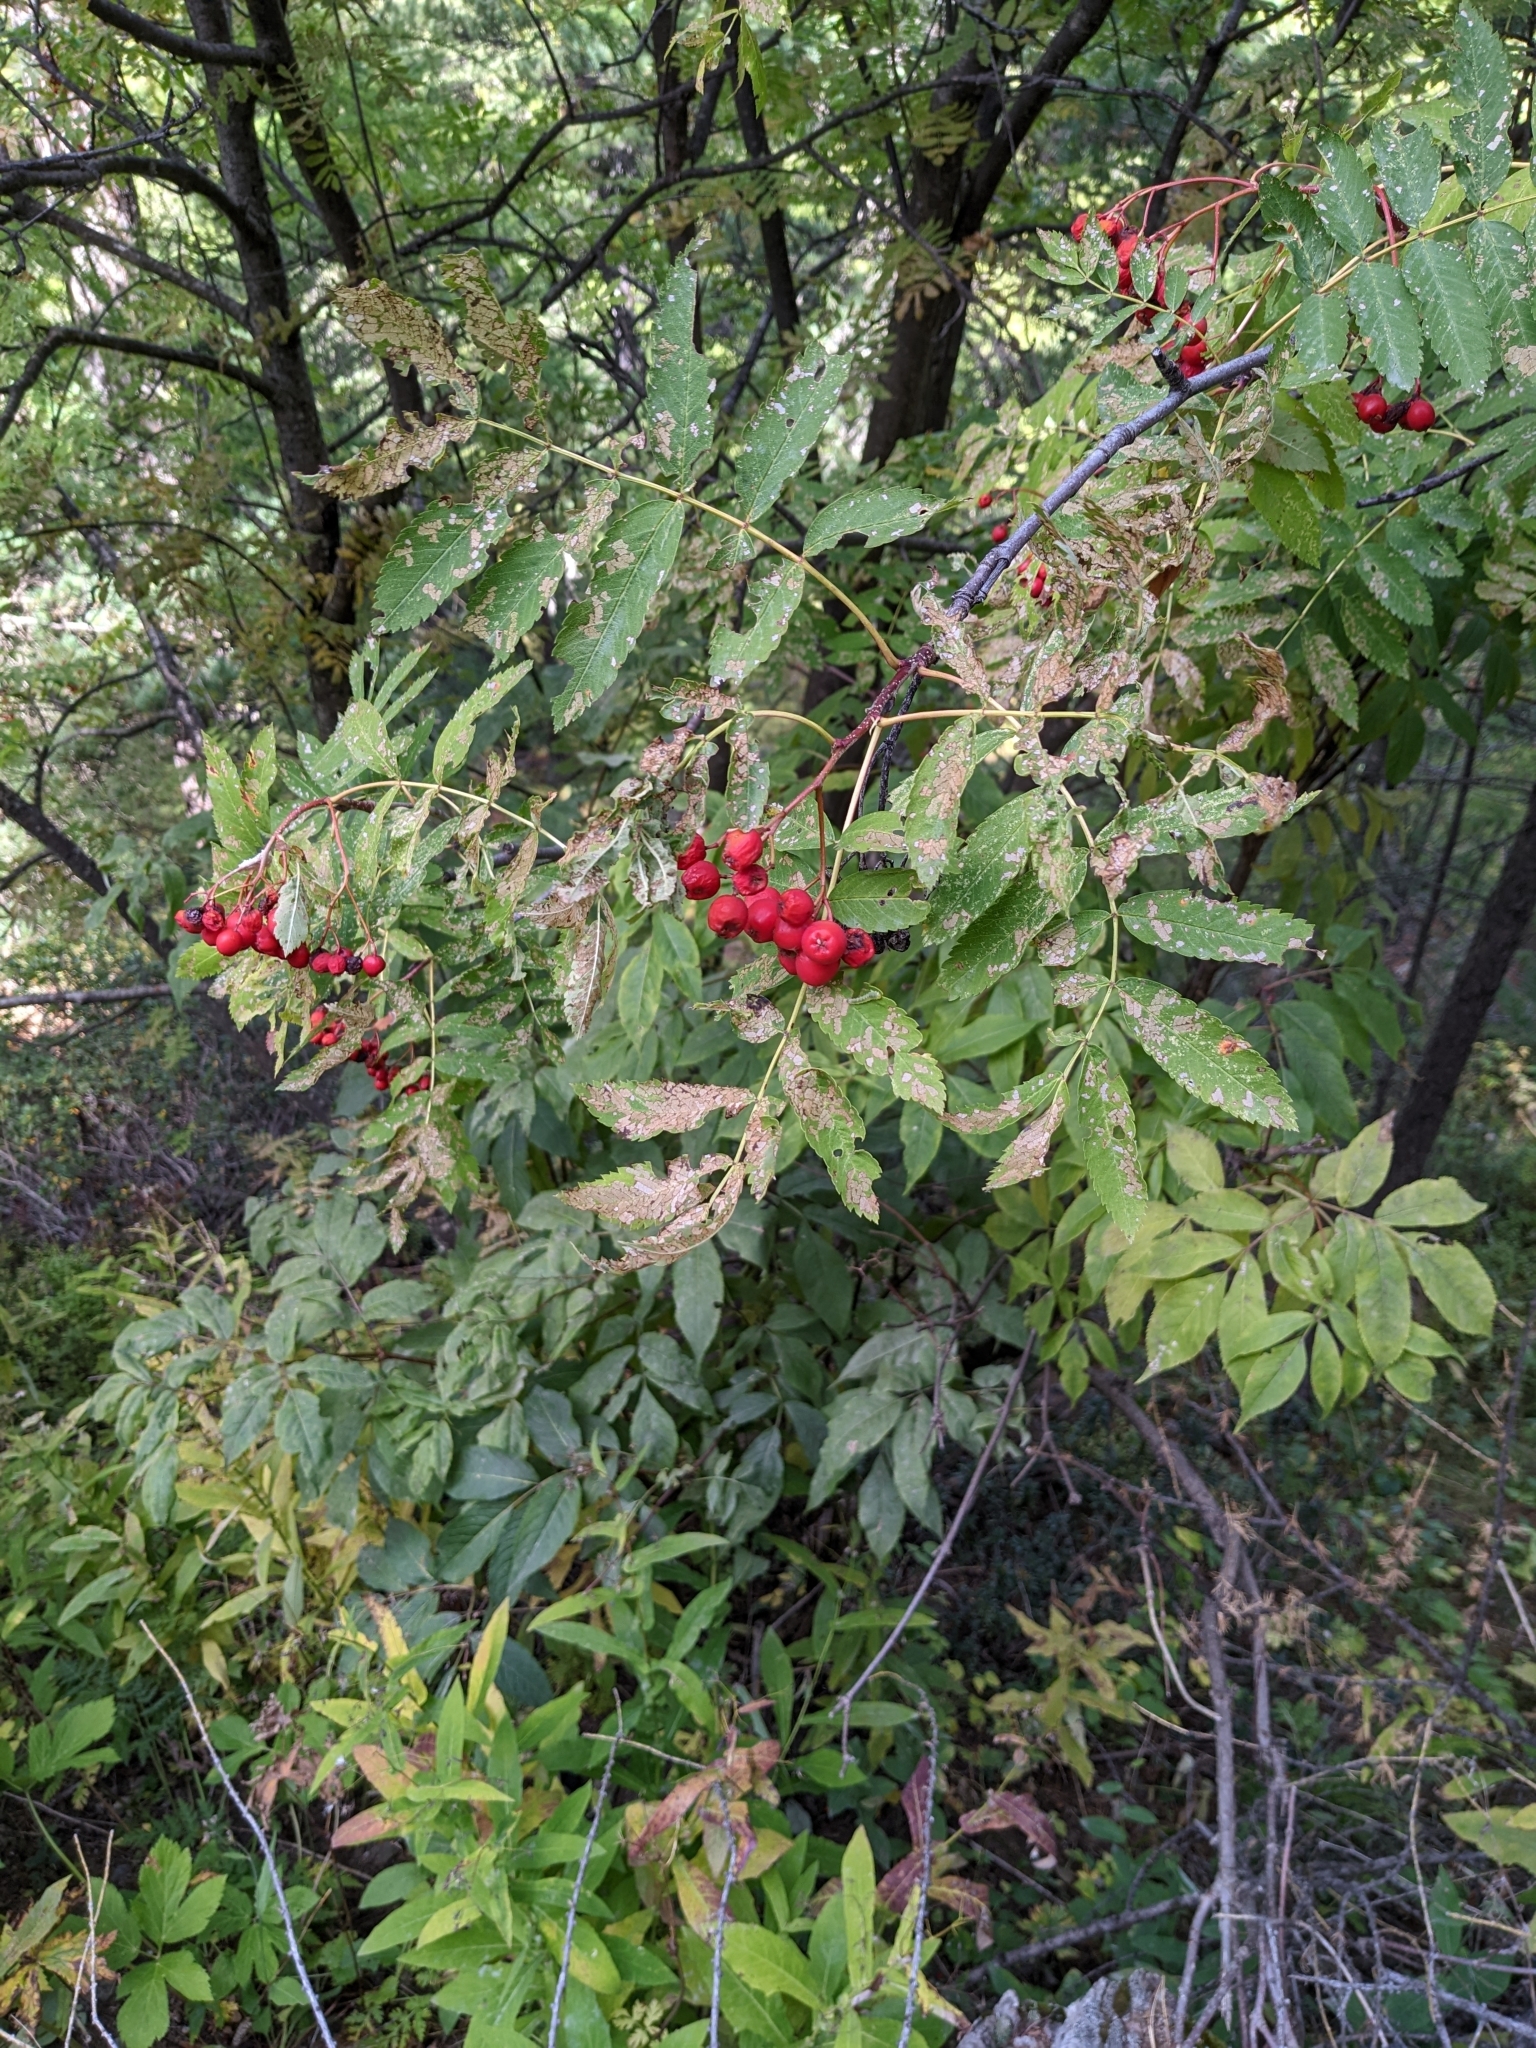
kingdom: Plantae
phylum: Tracheophyta
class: Magnoliopsida
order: Rosales
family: Rosaceae
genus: Sorbus
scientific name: Sorbus aucuparia
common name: Rowan
